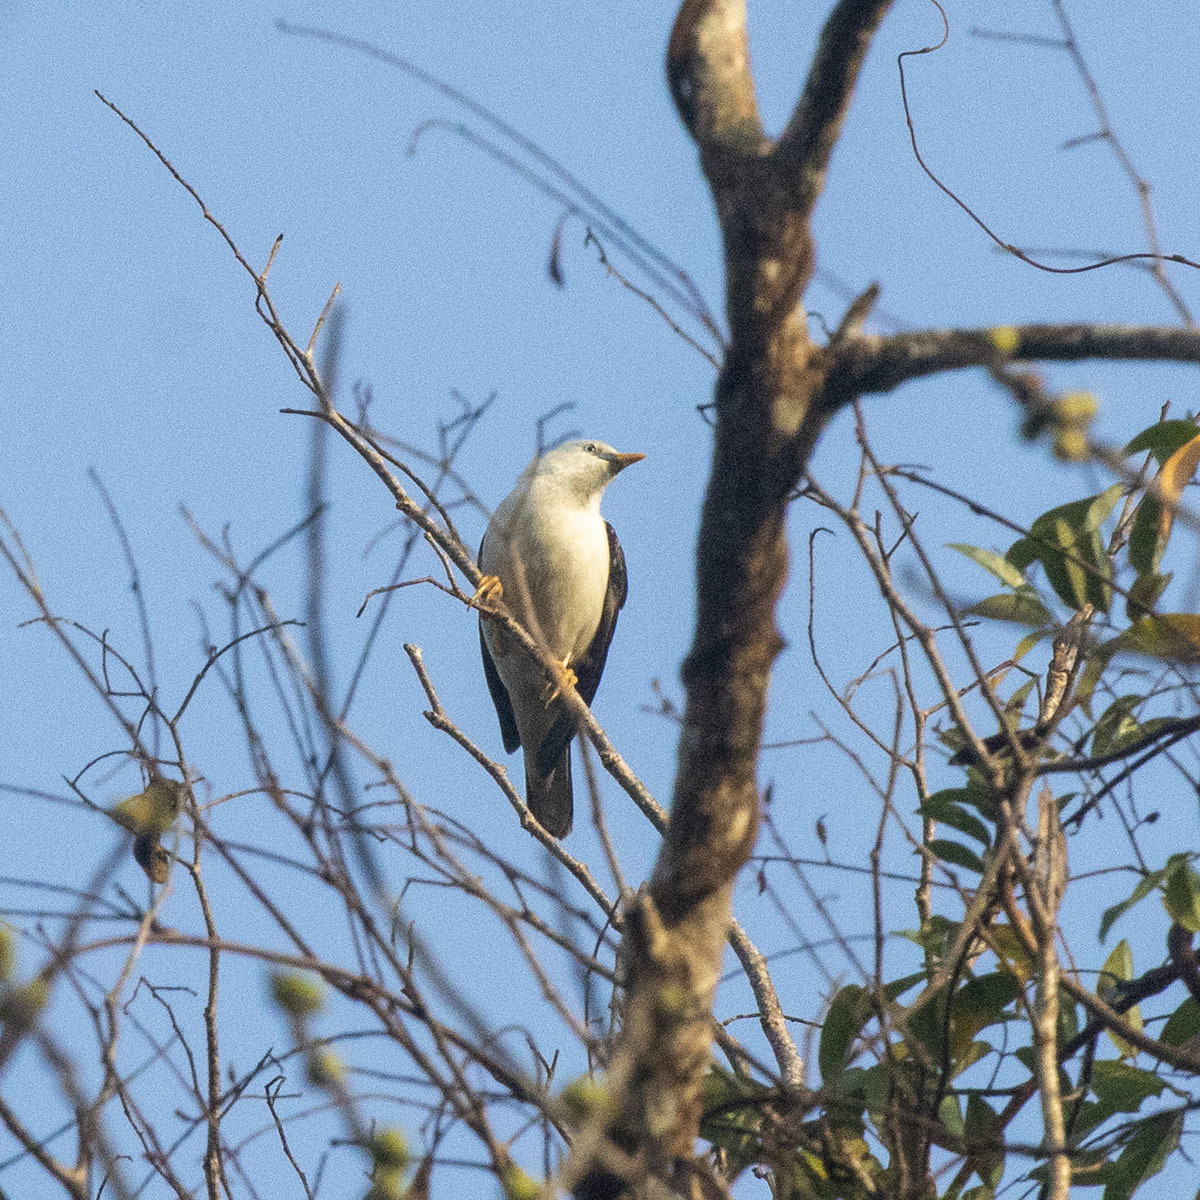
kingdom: Animalia
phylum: Chordata
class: Aves
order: Passeriformes
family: Sturnidae
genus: Sturnia
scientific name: Sturnia erythropygia
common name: White-headed starling
